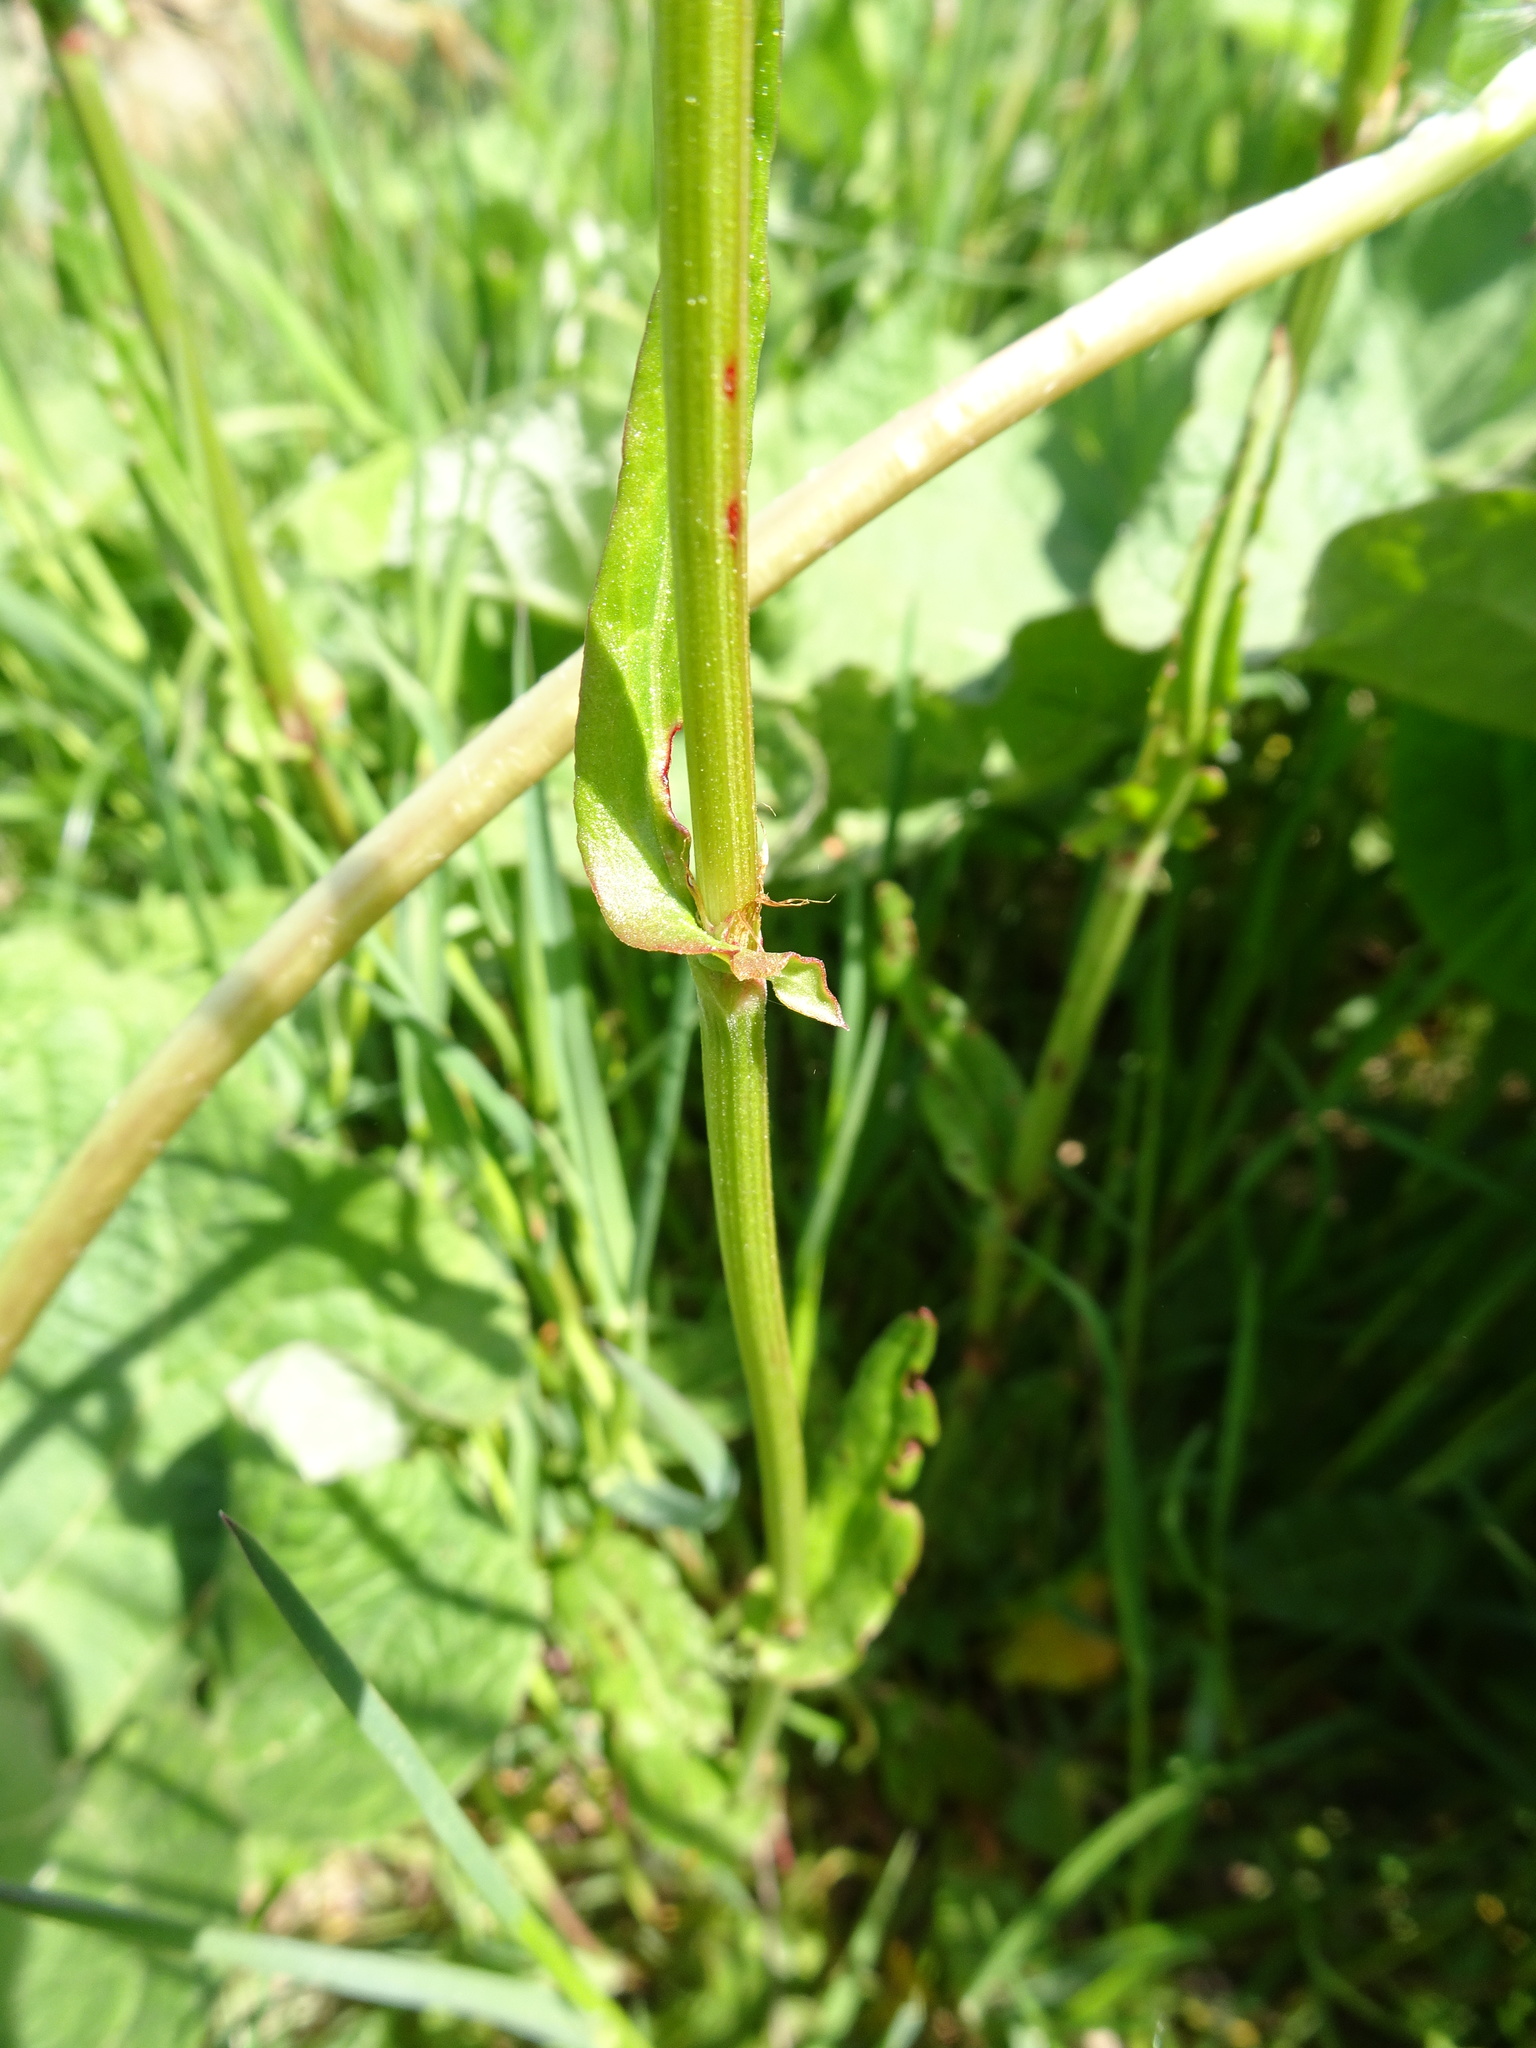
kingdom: Plantae
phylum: Tracheophyta
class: Magnoliopsida
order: Caryophyllales
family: Polygonaceae
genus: Rumex
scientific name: Rumex acetosa
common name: Garden sorrel
